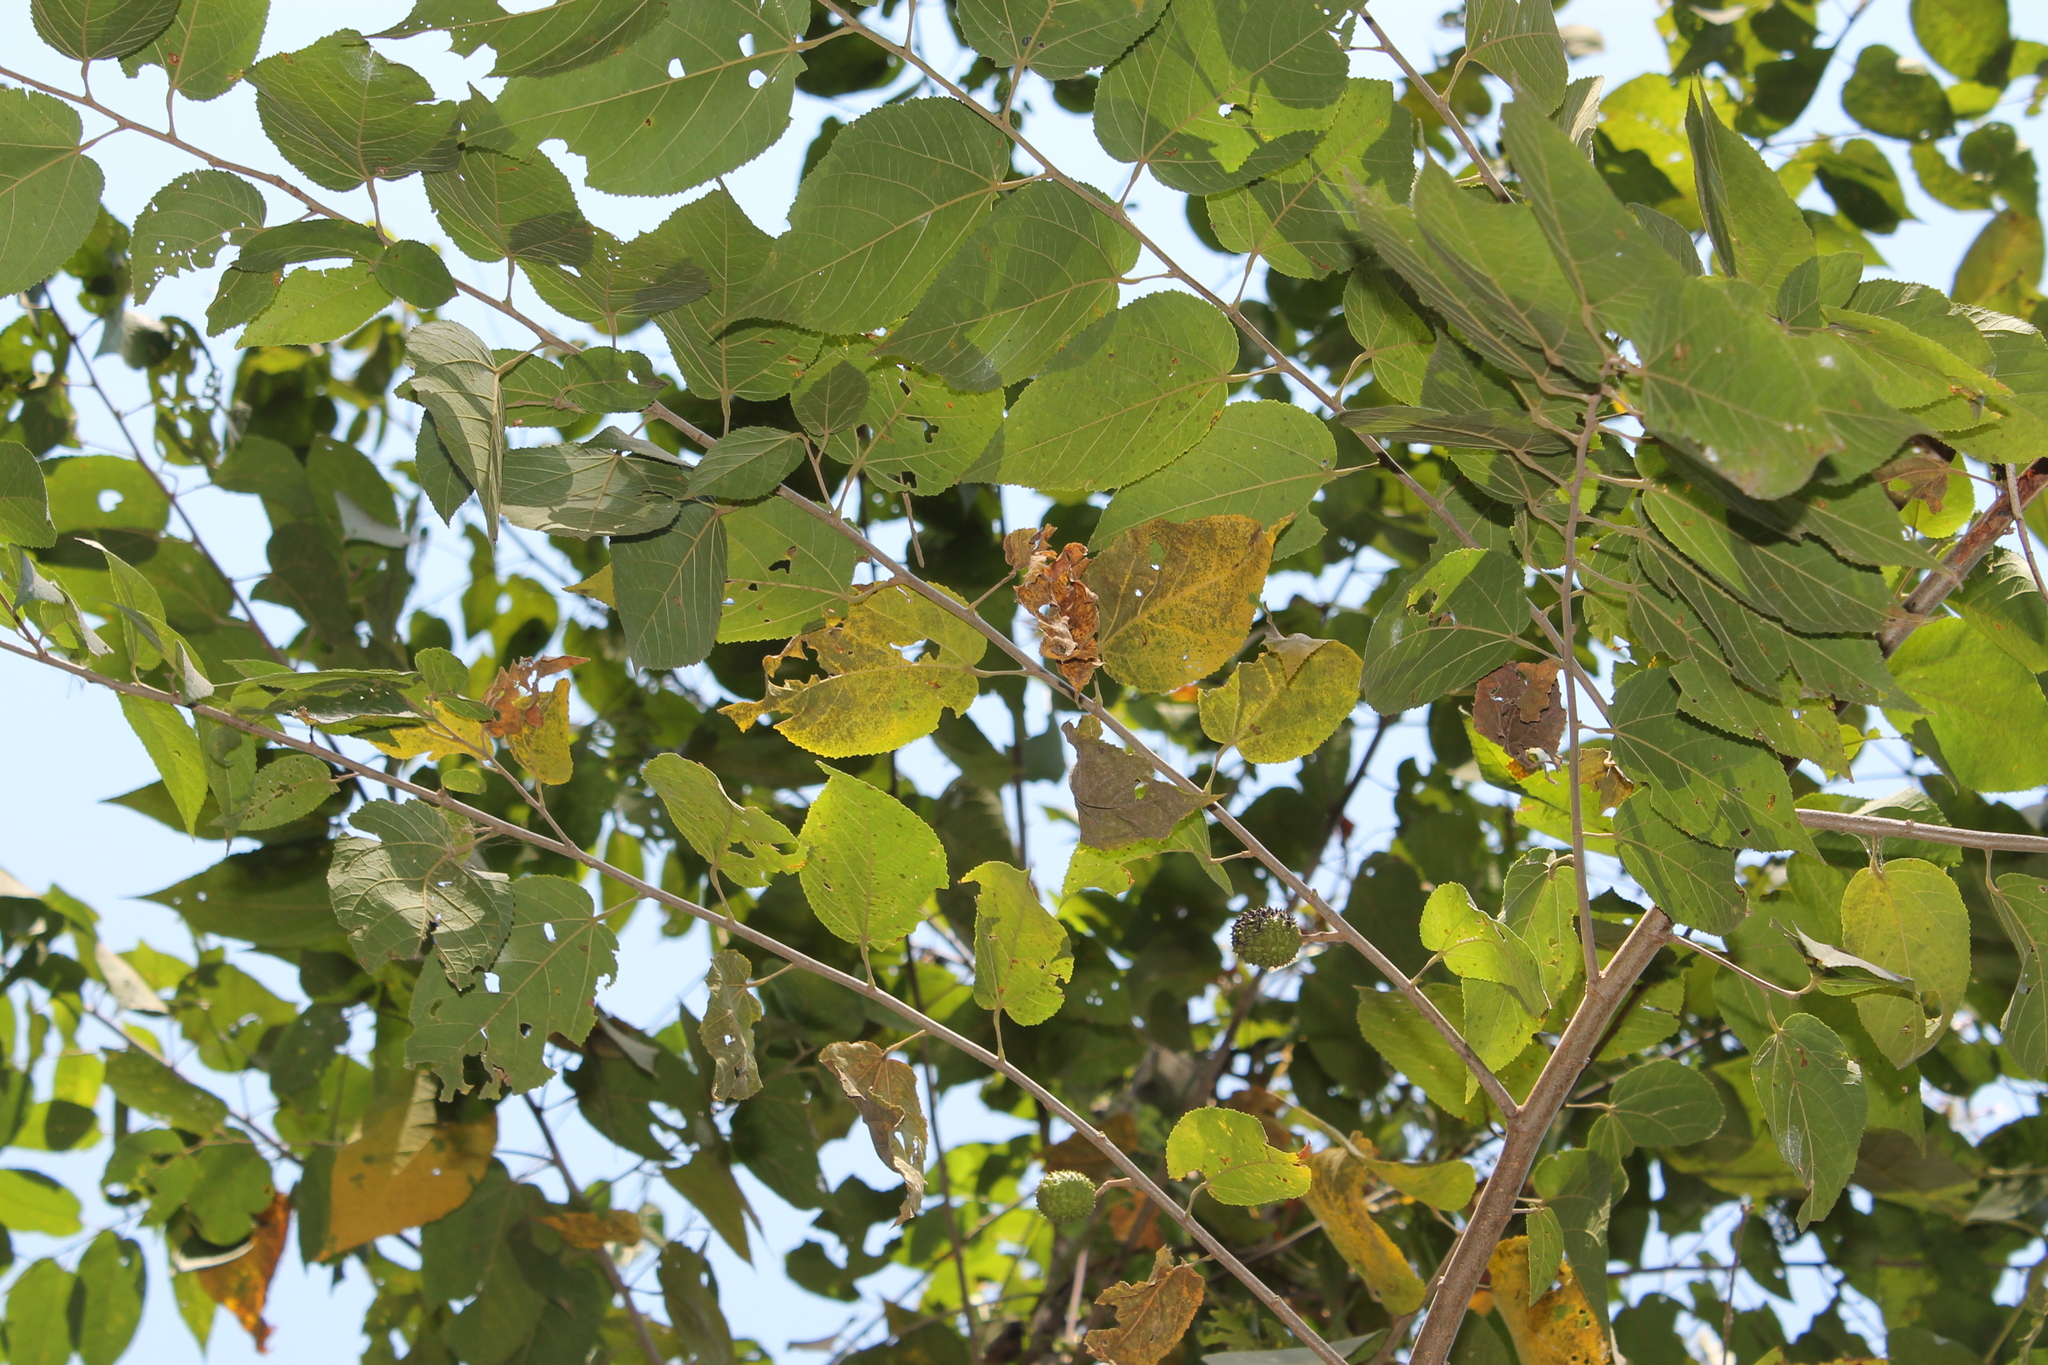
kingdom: Plantae
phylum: Tracheophyta
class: Magnoliopsida
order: Malvales
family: Malvaceae
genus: Guazuma
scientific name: Guazuma ulmifolia
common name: Bastard-cedar
